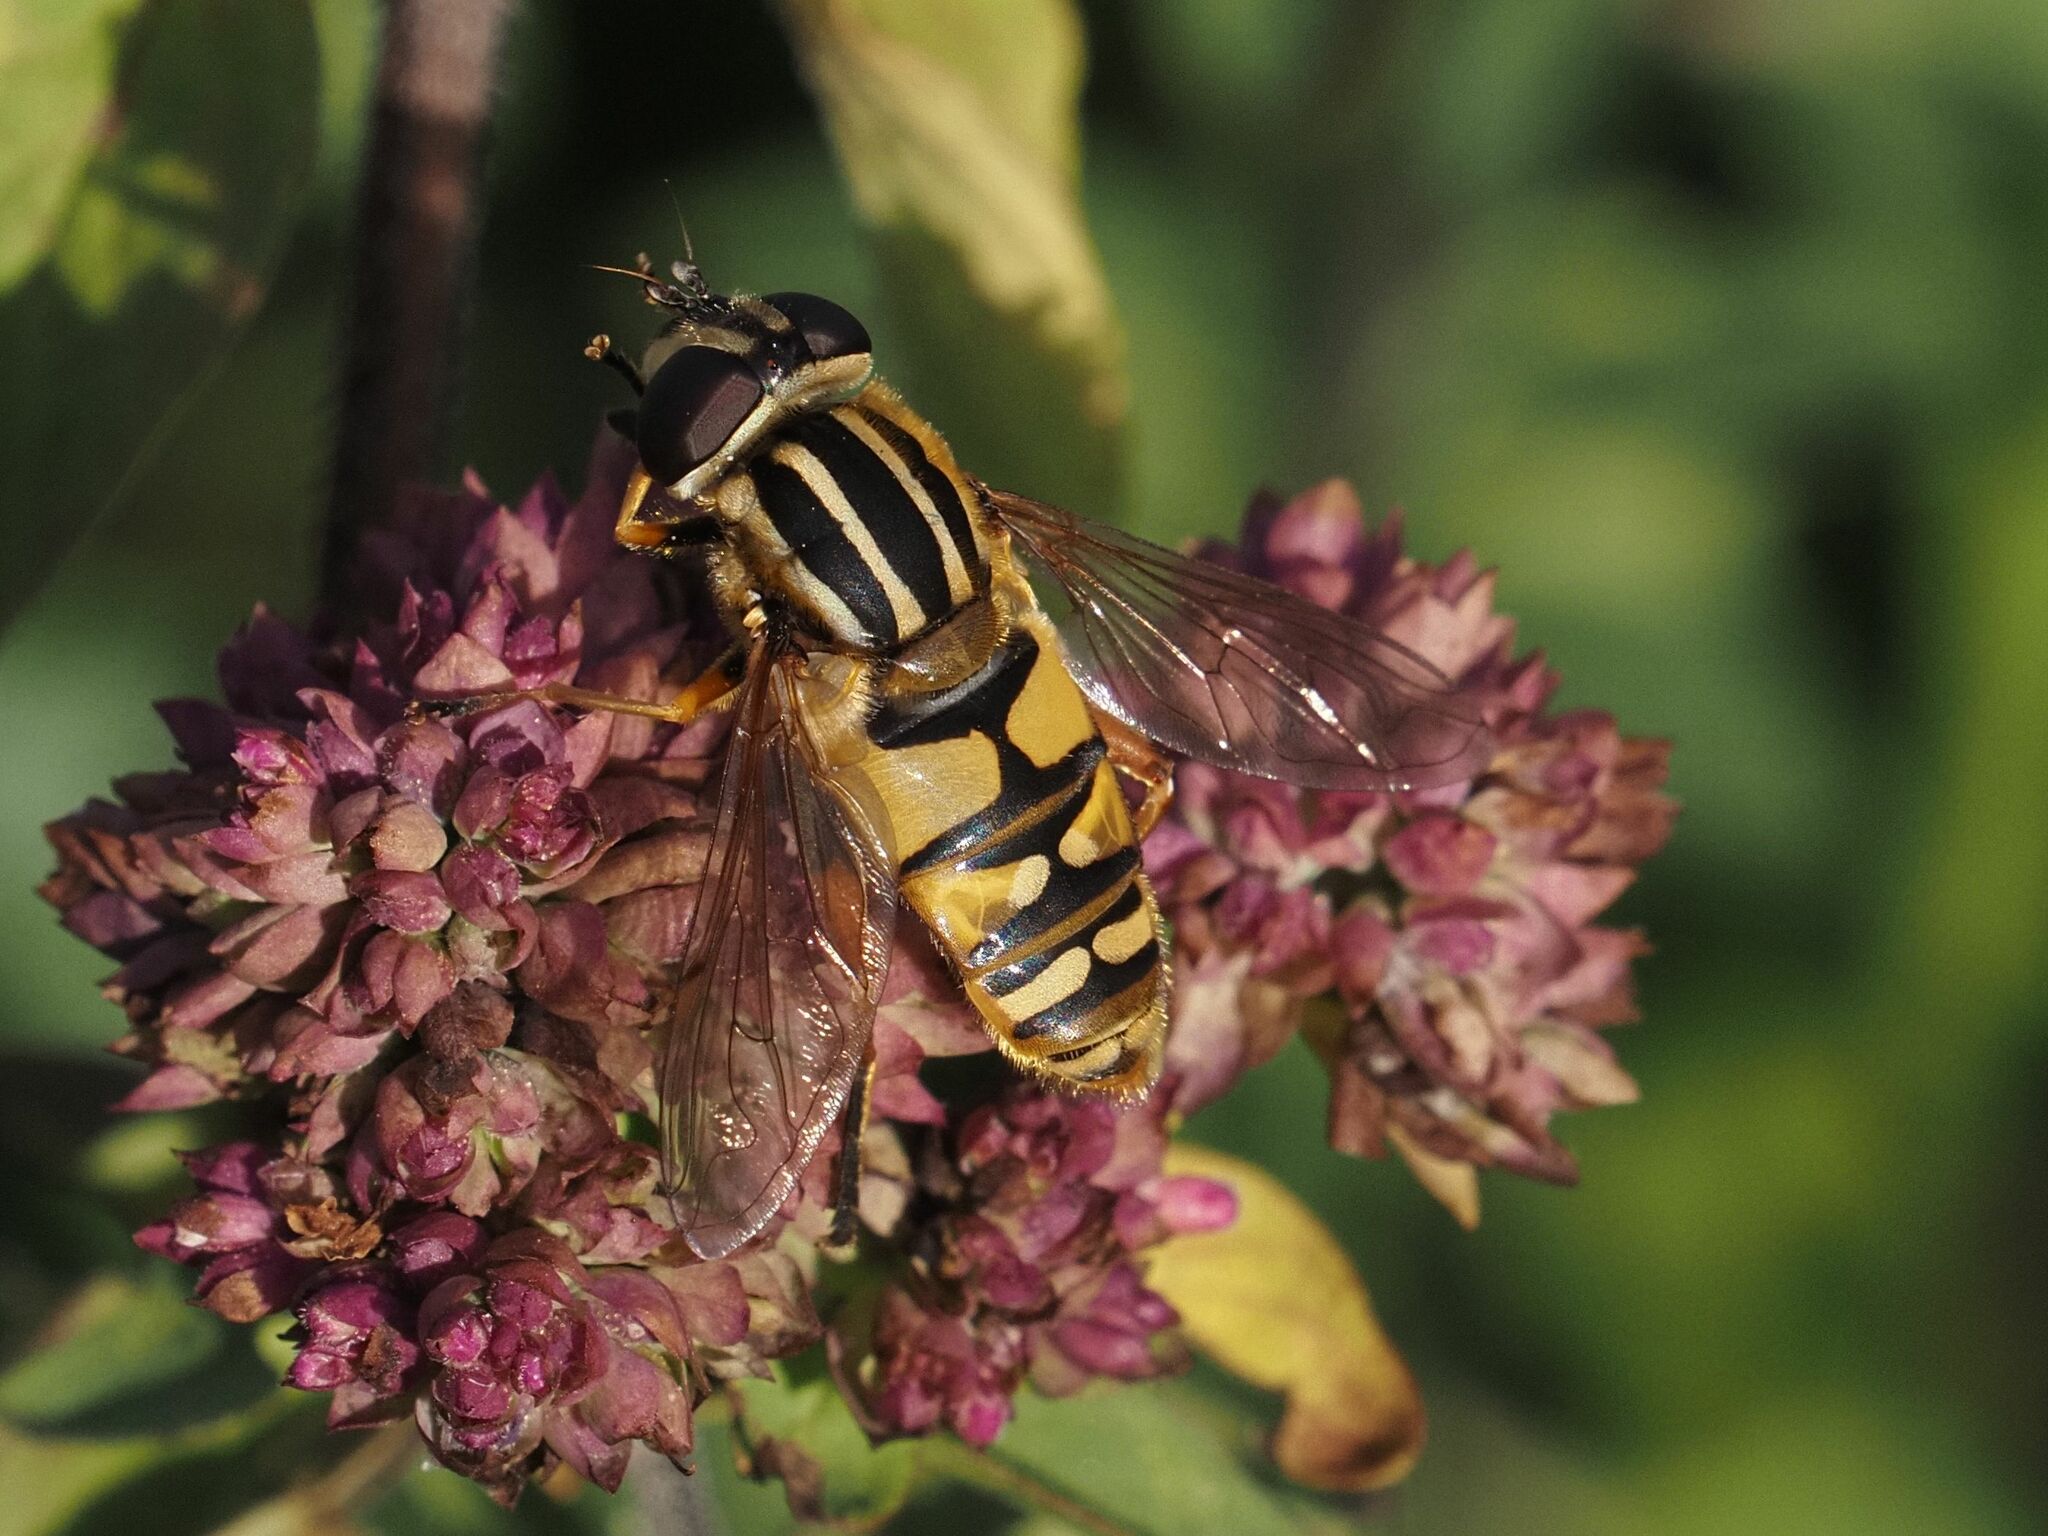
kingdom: Animalia
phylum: Arthropoda
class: Insecta
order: Diptera
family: Syrphidae
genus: Helophilus
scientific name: Helophilus pendulus
